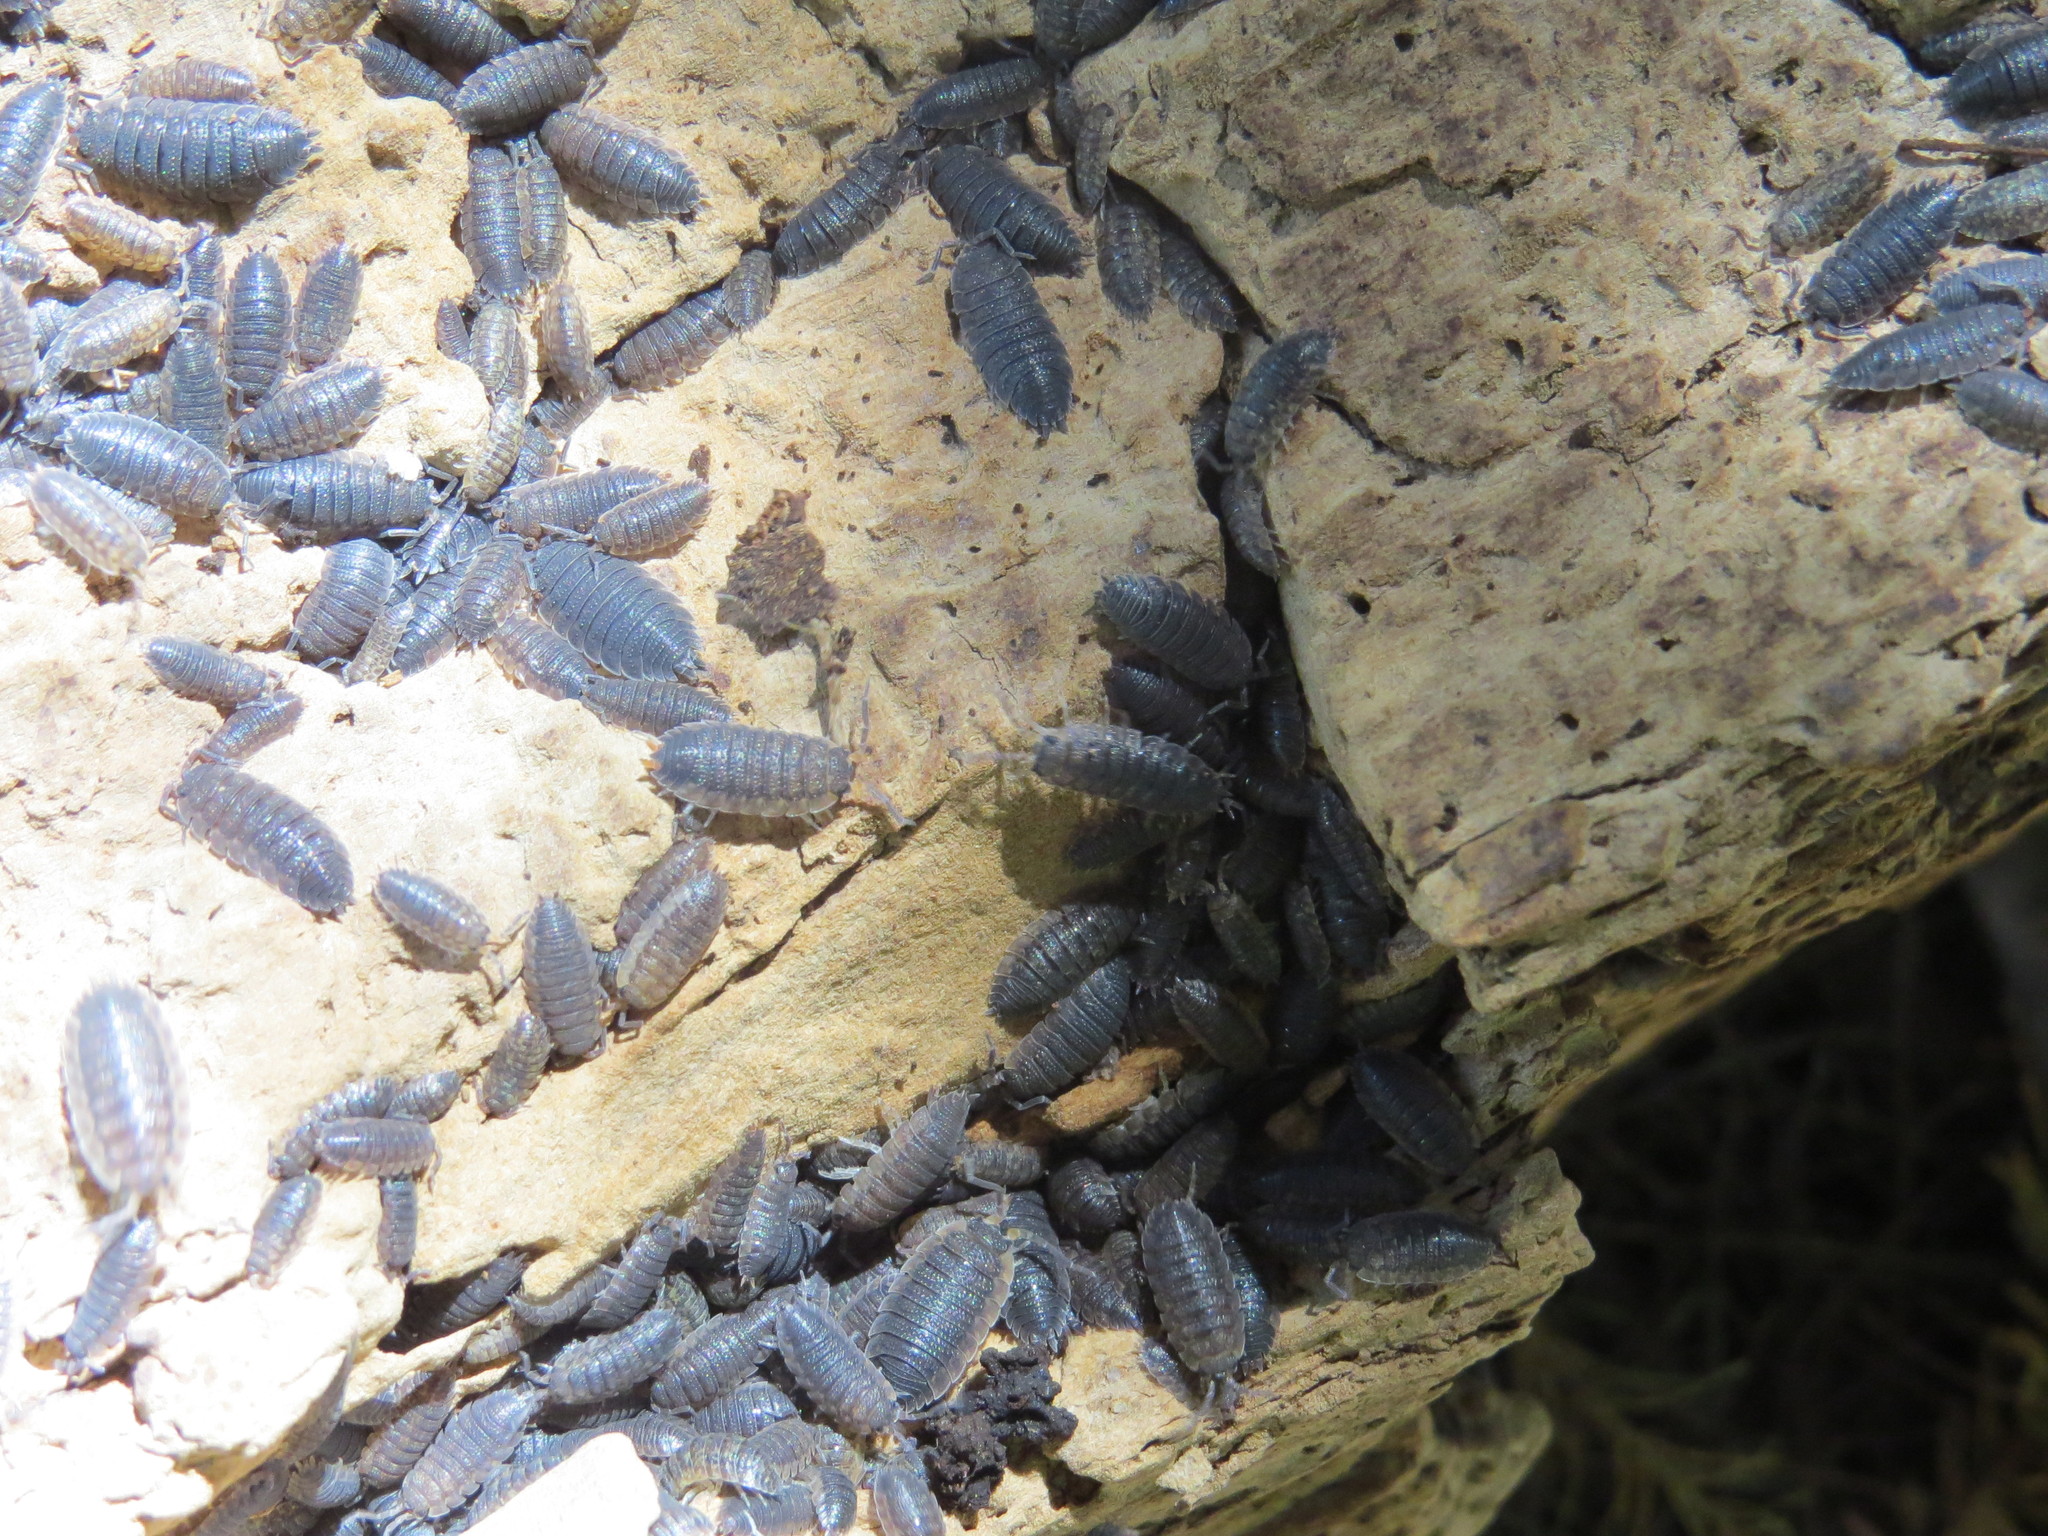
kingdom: Animalia
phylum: Arthropoda
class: Malacostraca
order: Isopoda
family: Porcellionidae
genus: Porcellio
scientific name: Porcellio scaber
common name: Common rough woodlouse
